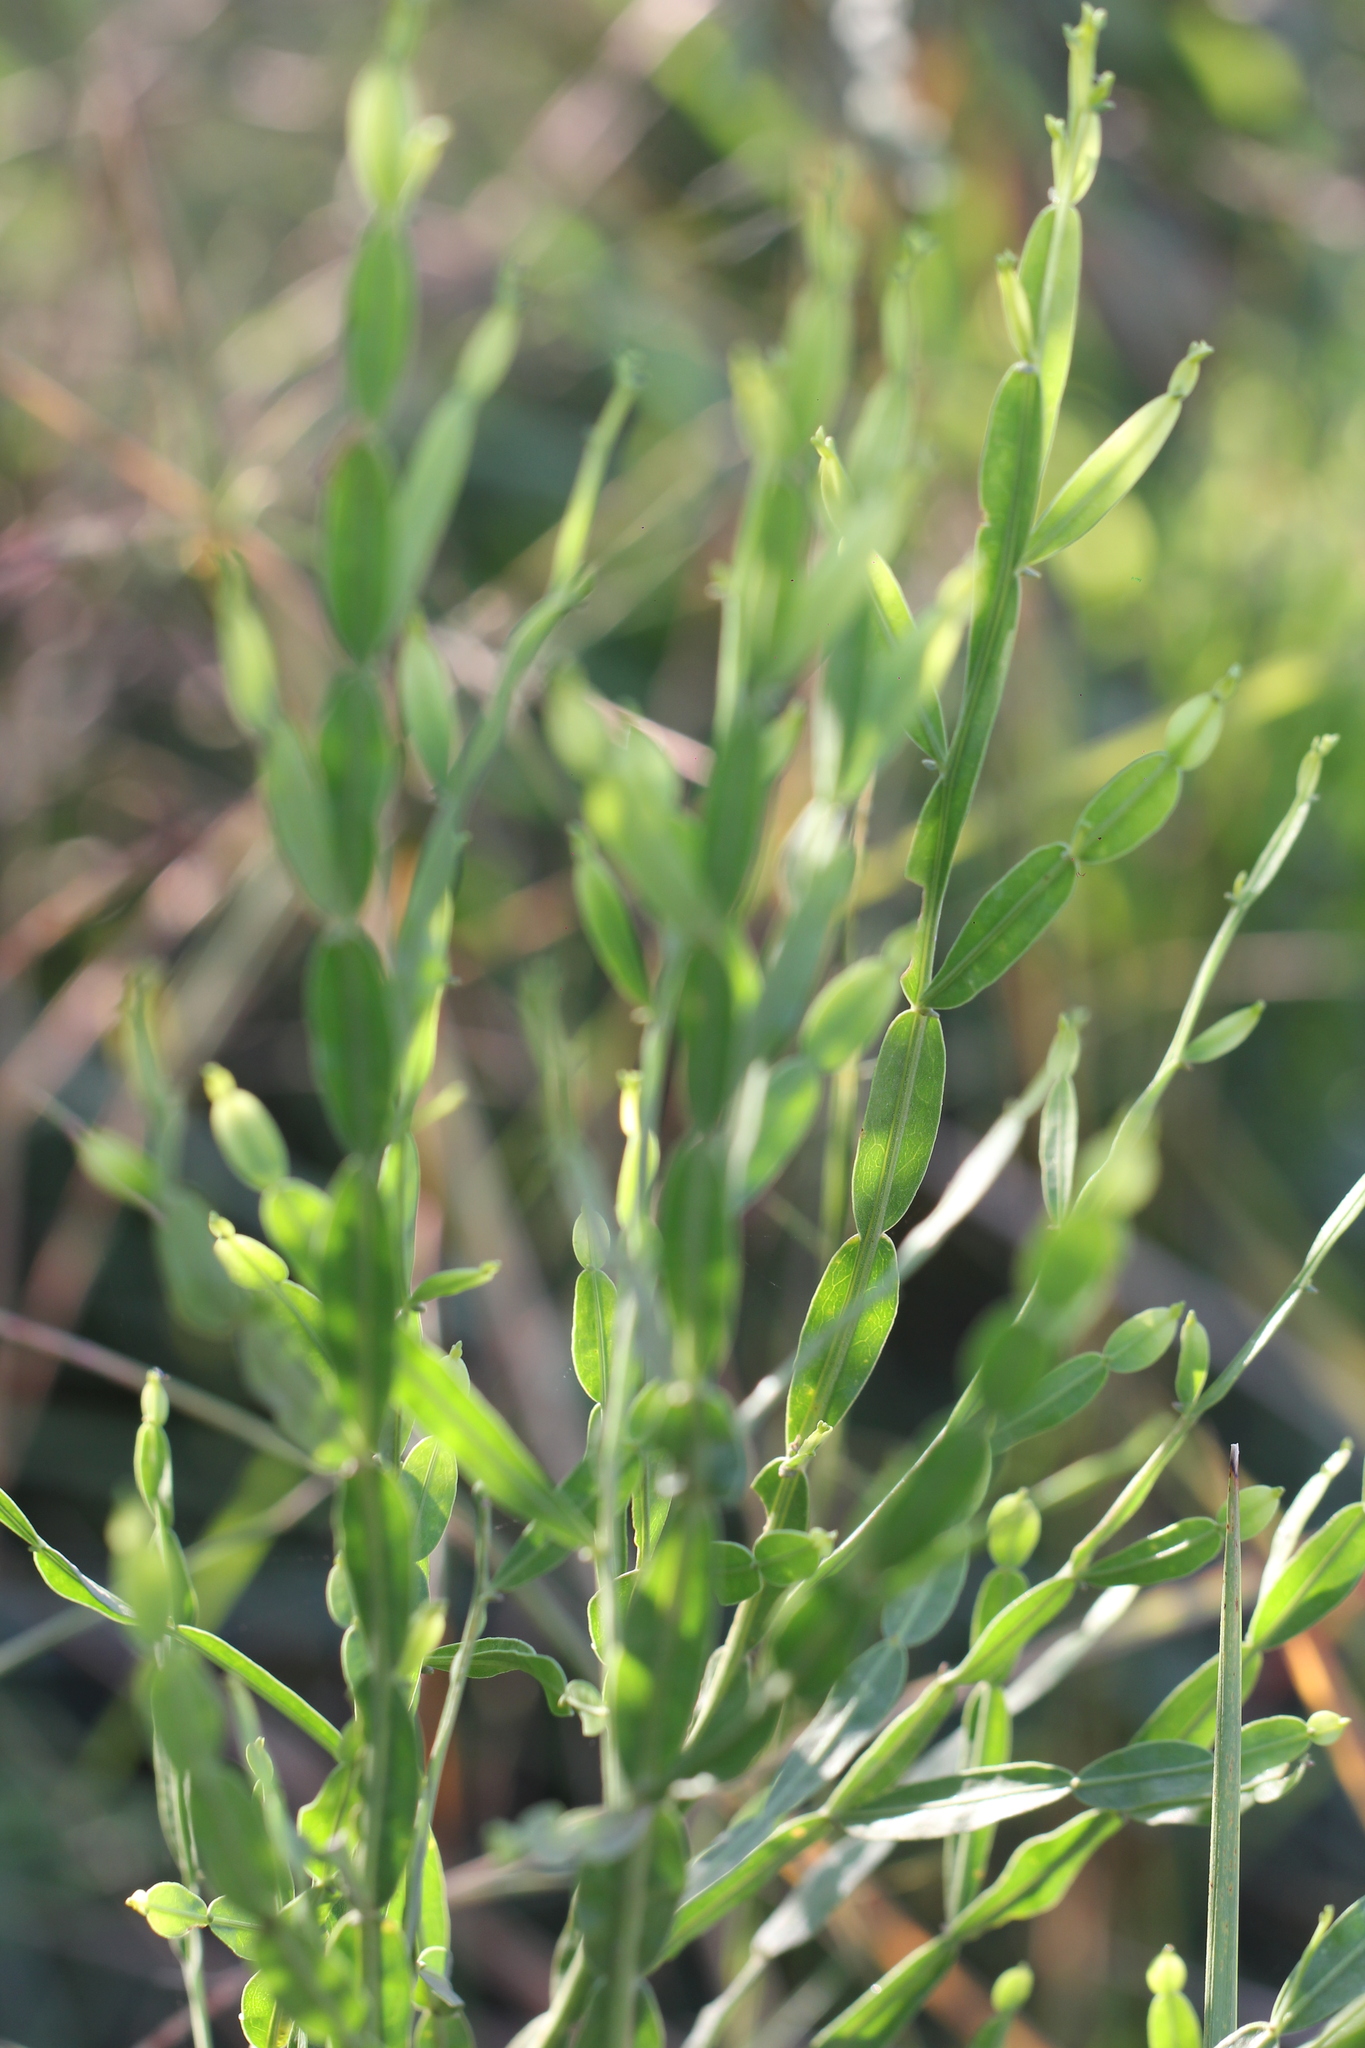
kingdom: Plantae
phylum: Tracheophyta
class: Magnoliopsida
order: Asterales
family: Asteraceae
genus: Baccharis
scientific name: Baccharis articulata
